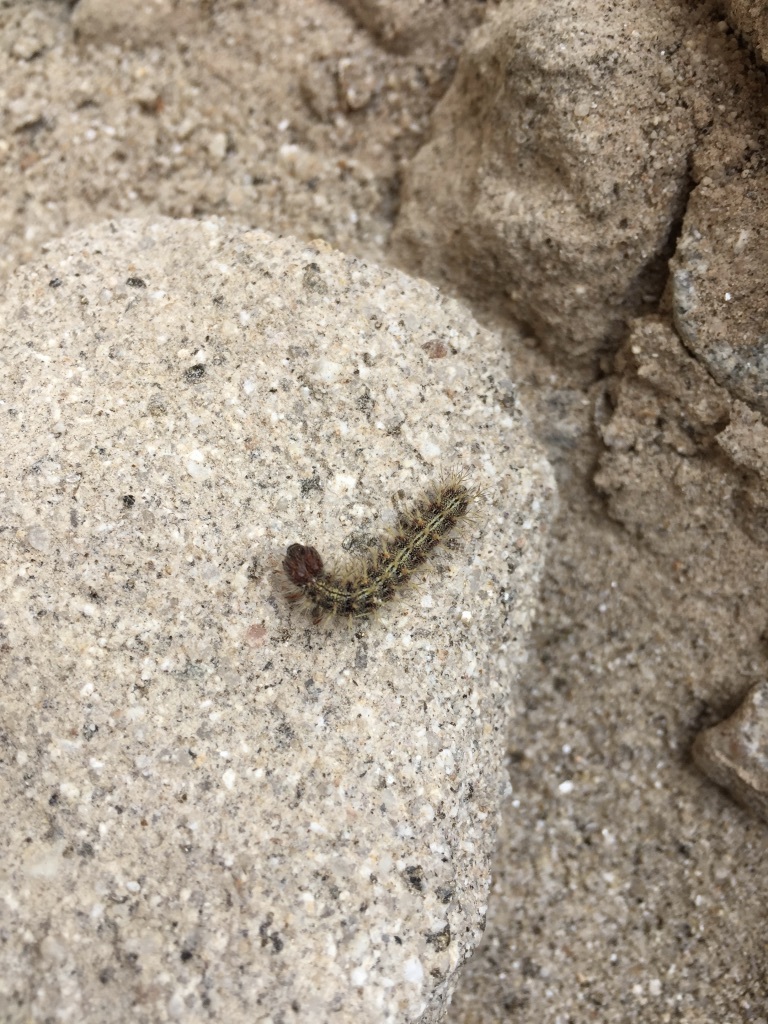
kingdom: Animalia
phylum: Arthropoda
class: Insecta
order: Lepidoptera
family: Nymphalidae
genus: Vanessa
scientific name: Vanessa cardui
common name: Painted lady
